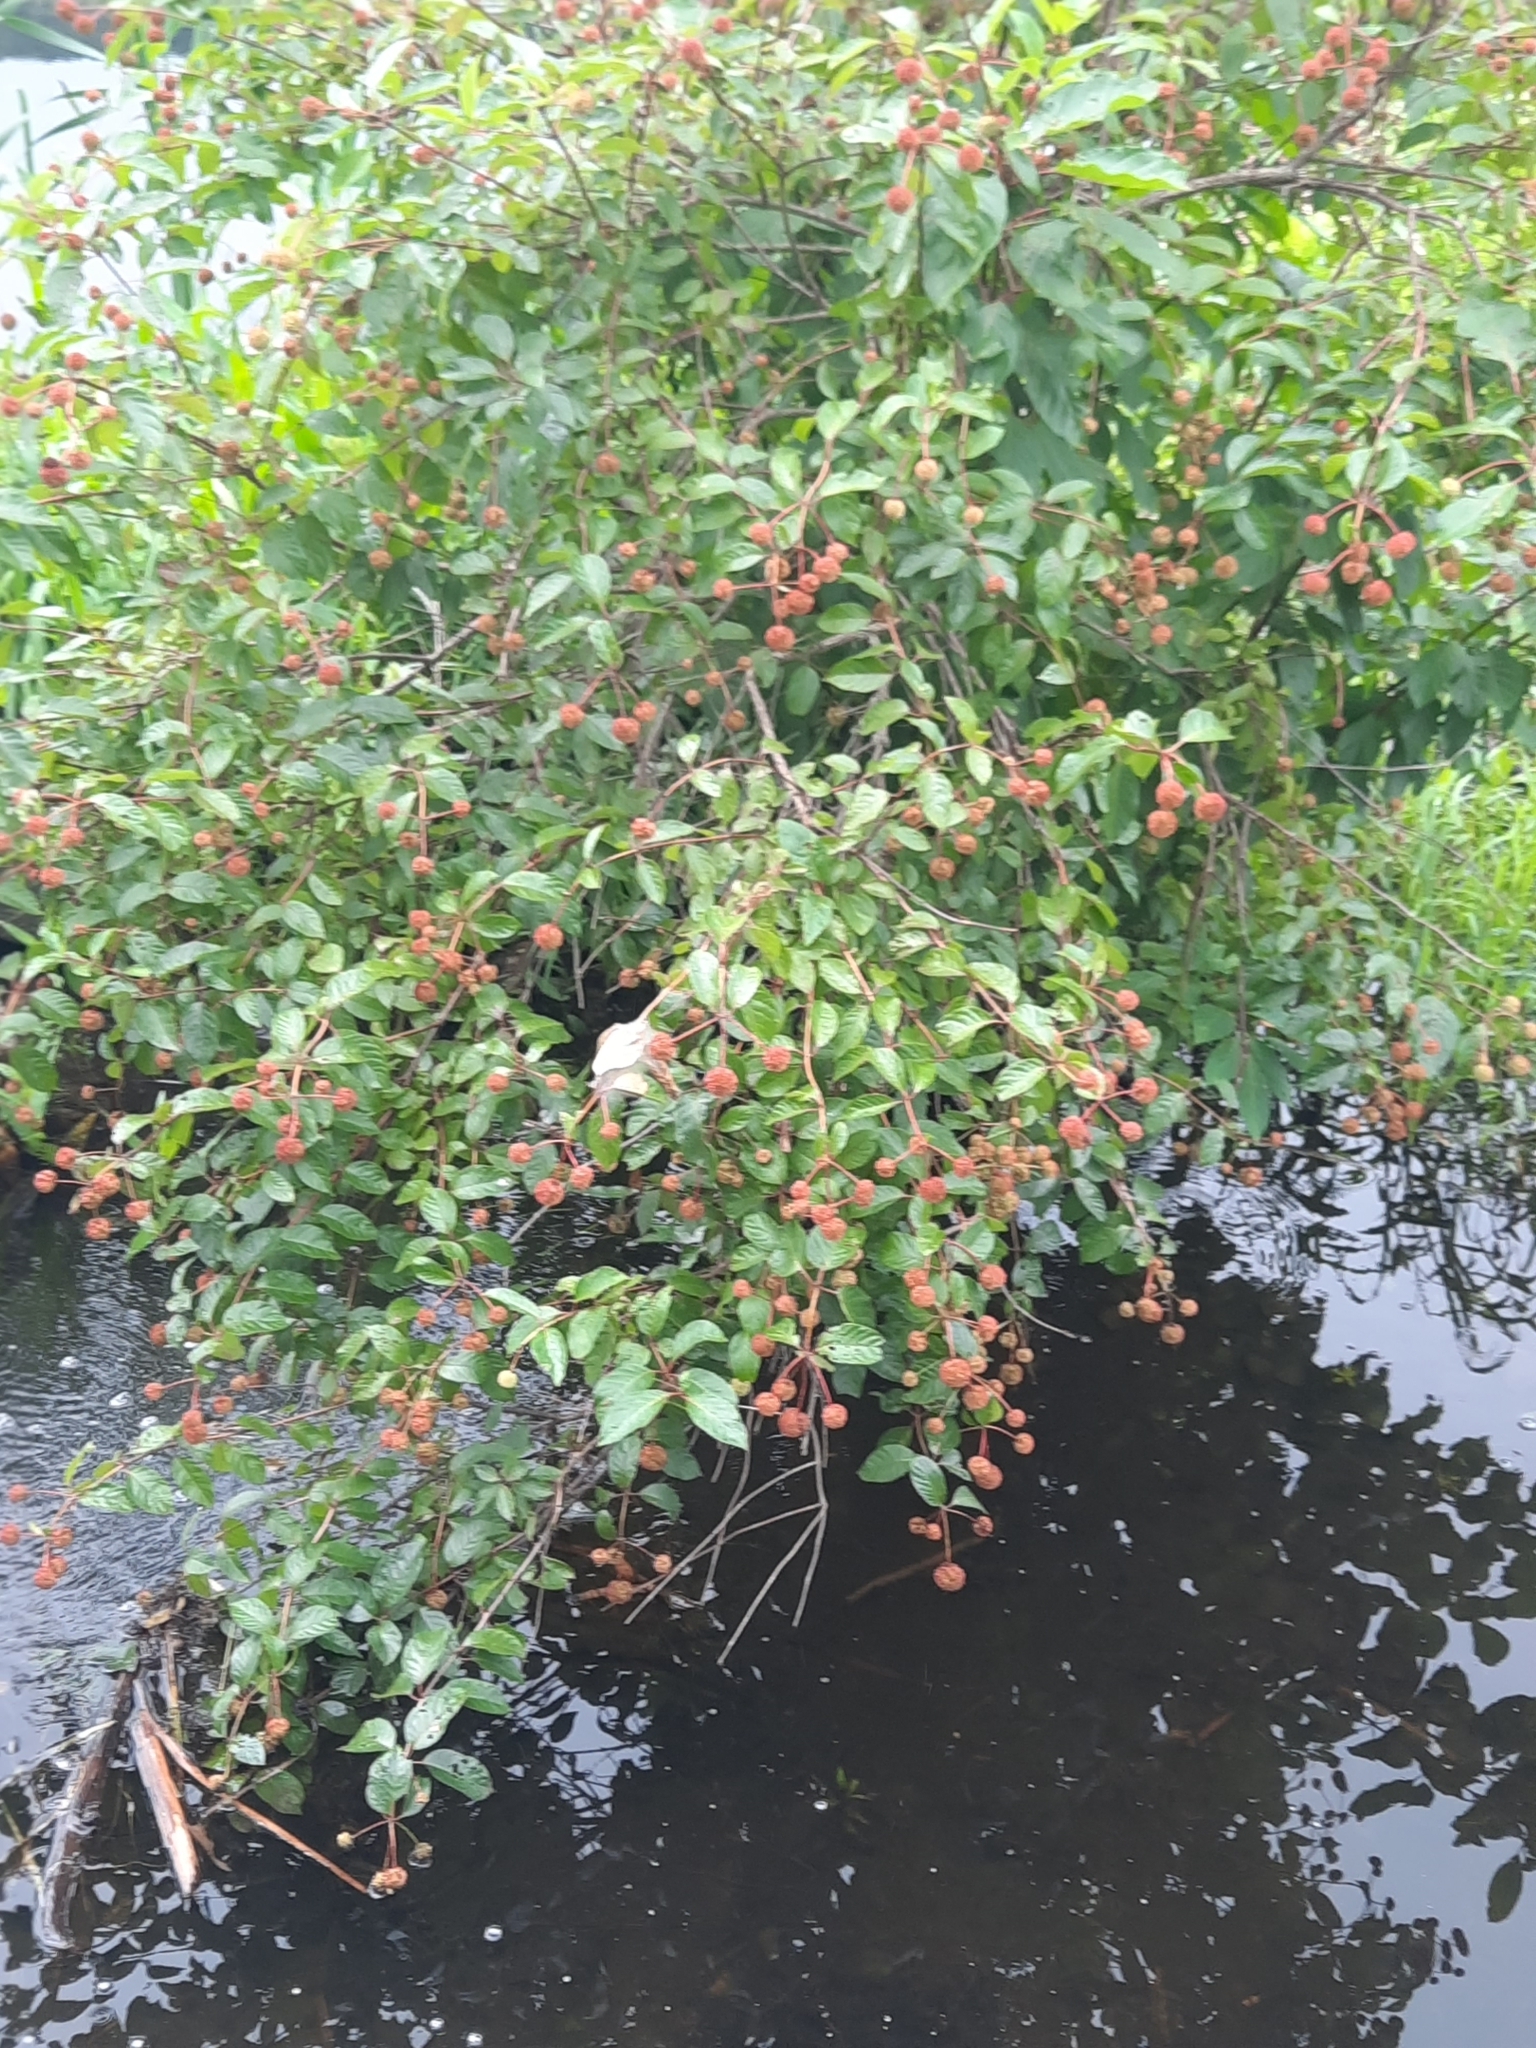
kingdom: Plantae
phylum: Tracheophyta
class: Magnoliopsida
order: Gentianales
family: Rubiaceae
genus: Cephalanthus
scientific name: Cephalanthus occidentalis
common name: Button-willow
